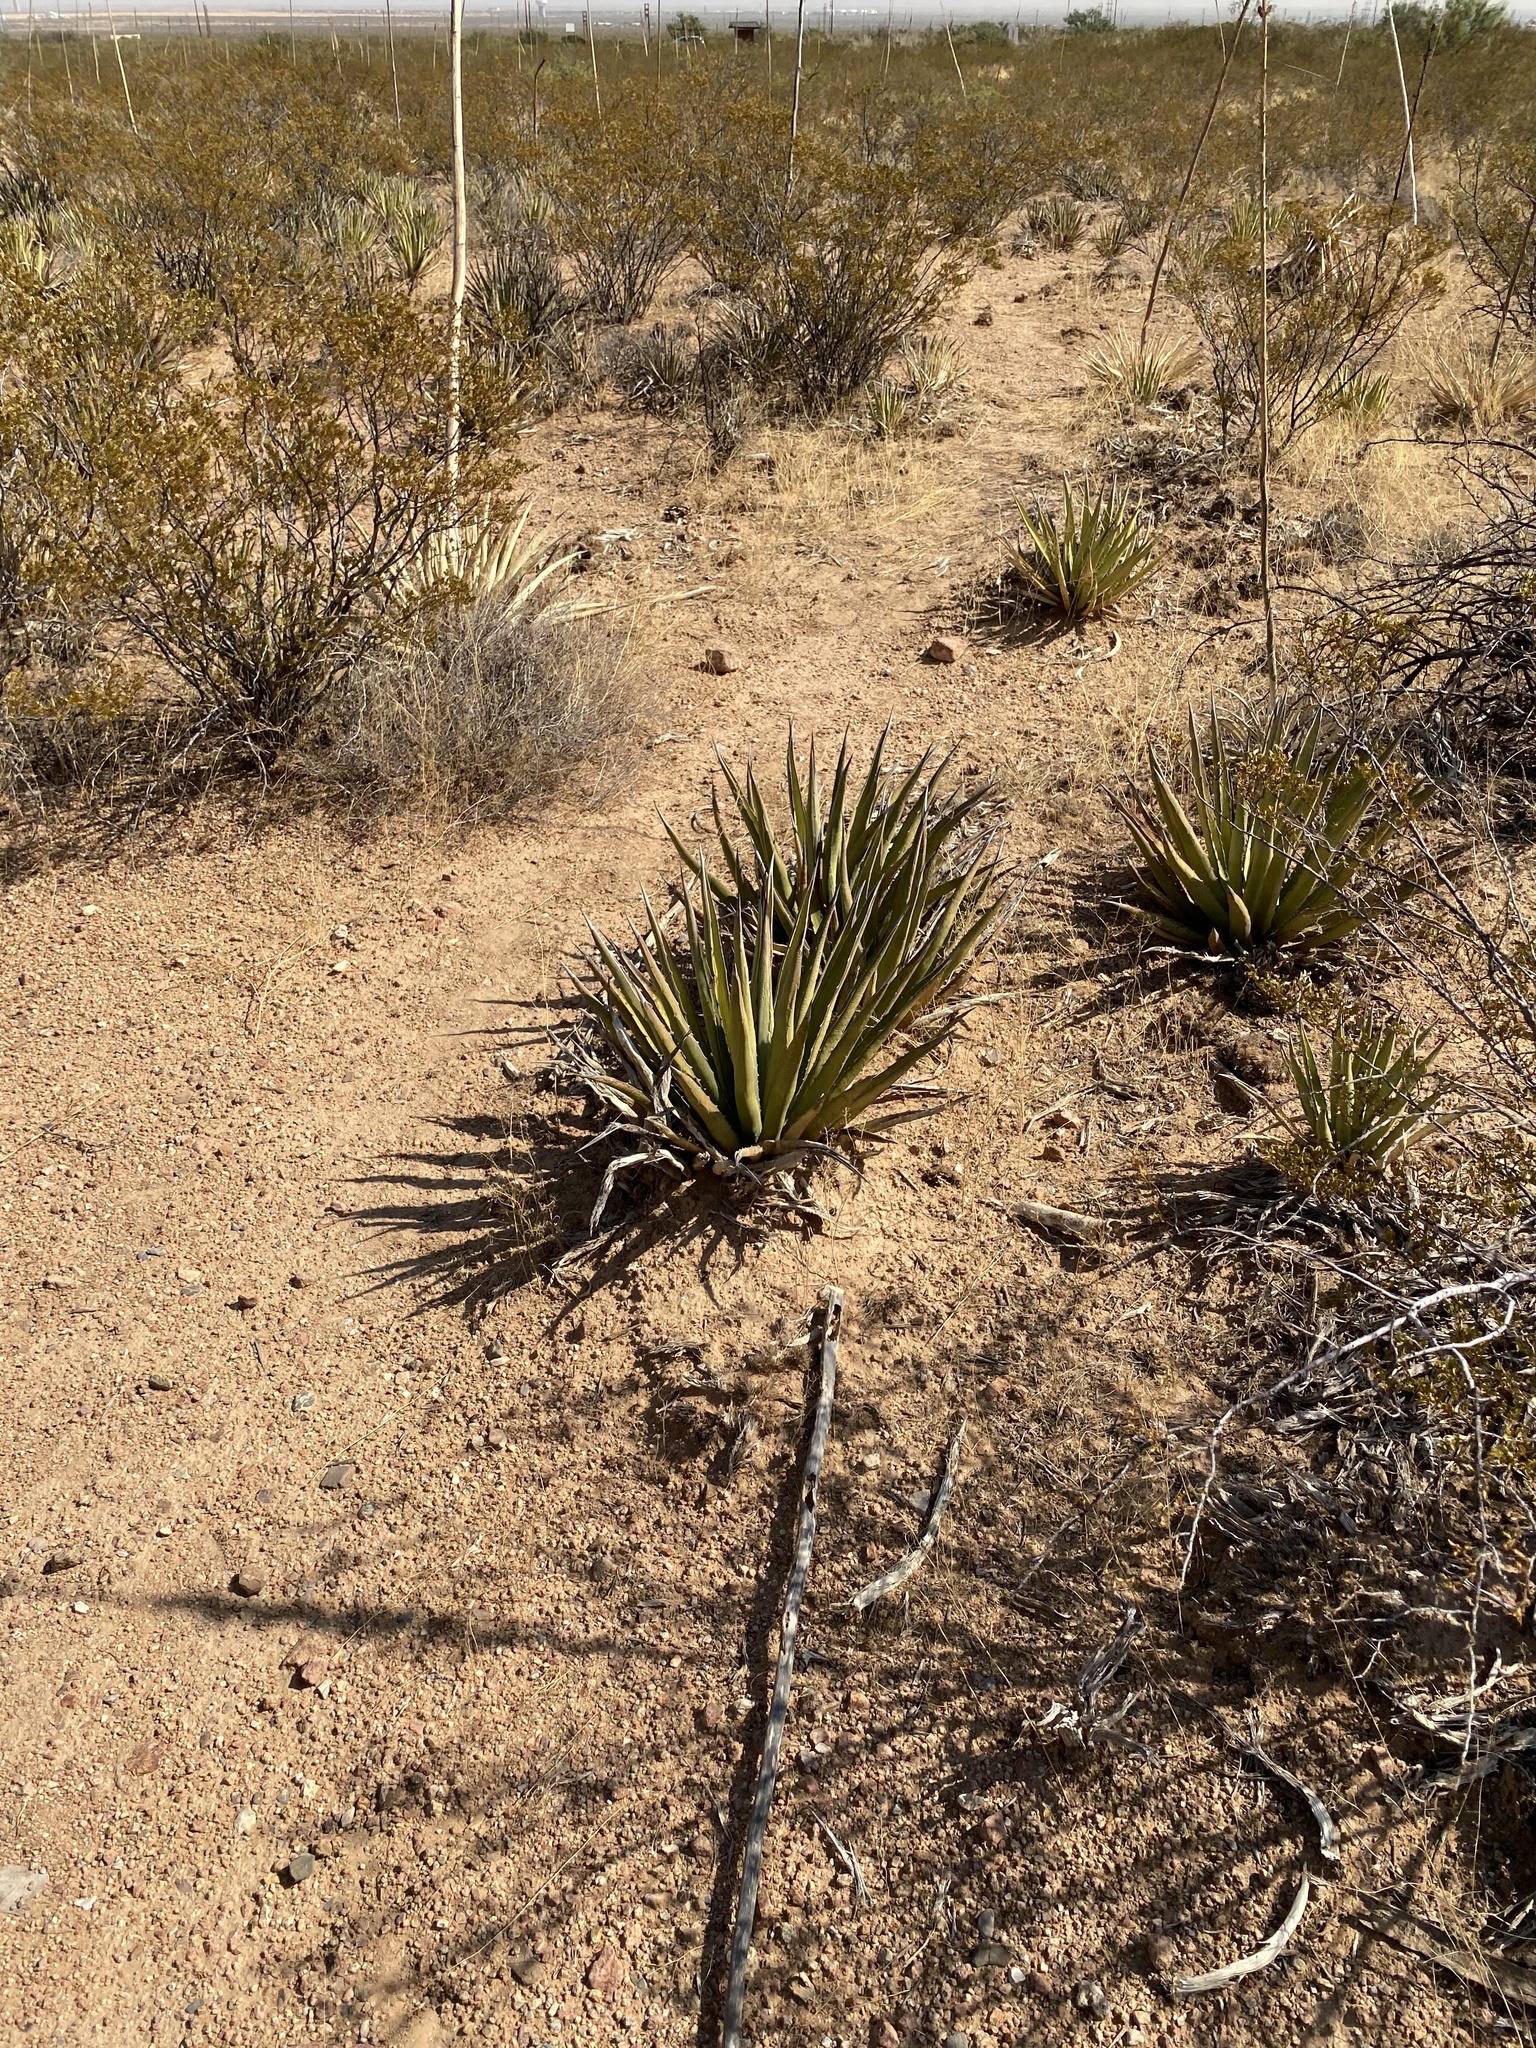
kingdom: Plantae
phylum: Tracheophyta
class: Liliopsida
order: Asparagales
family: Asparagaceae
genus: Agave
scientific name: Agave lechuguilla
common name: Lecheguilla agave
